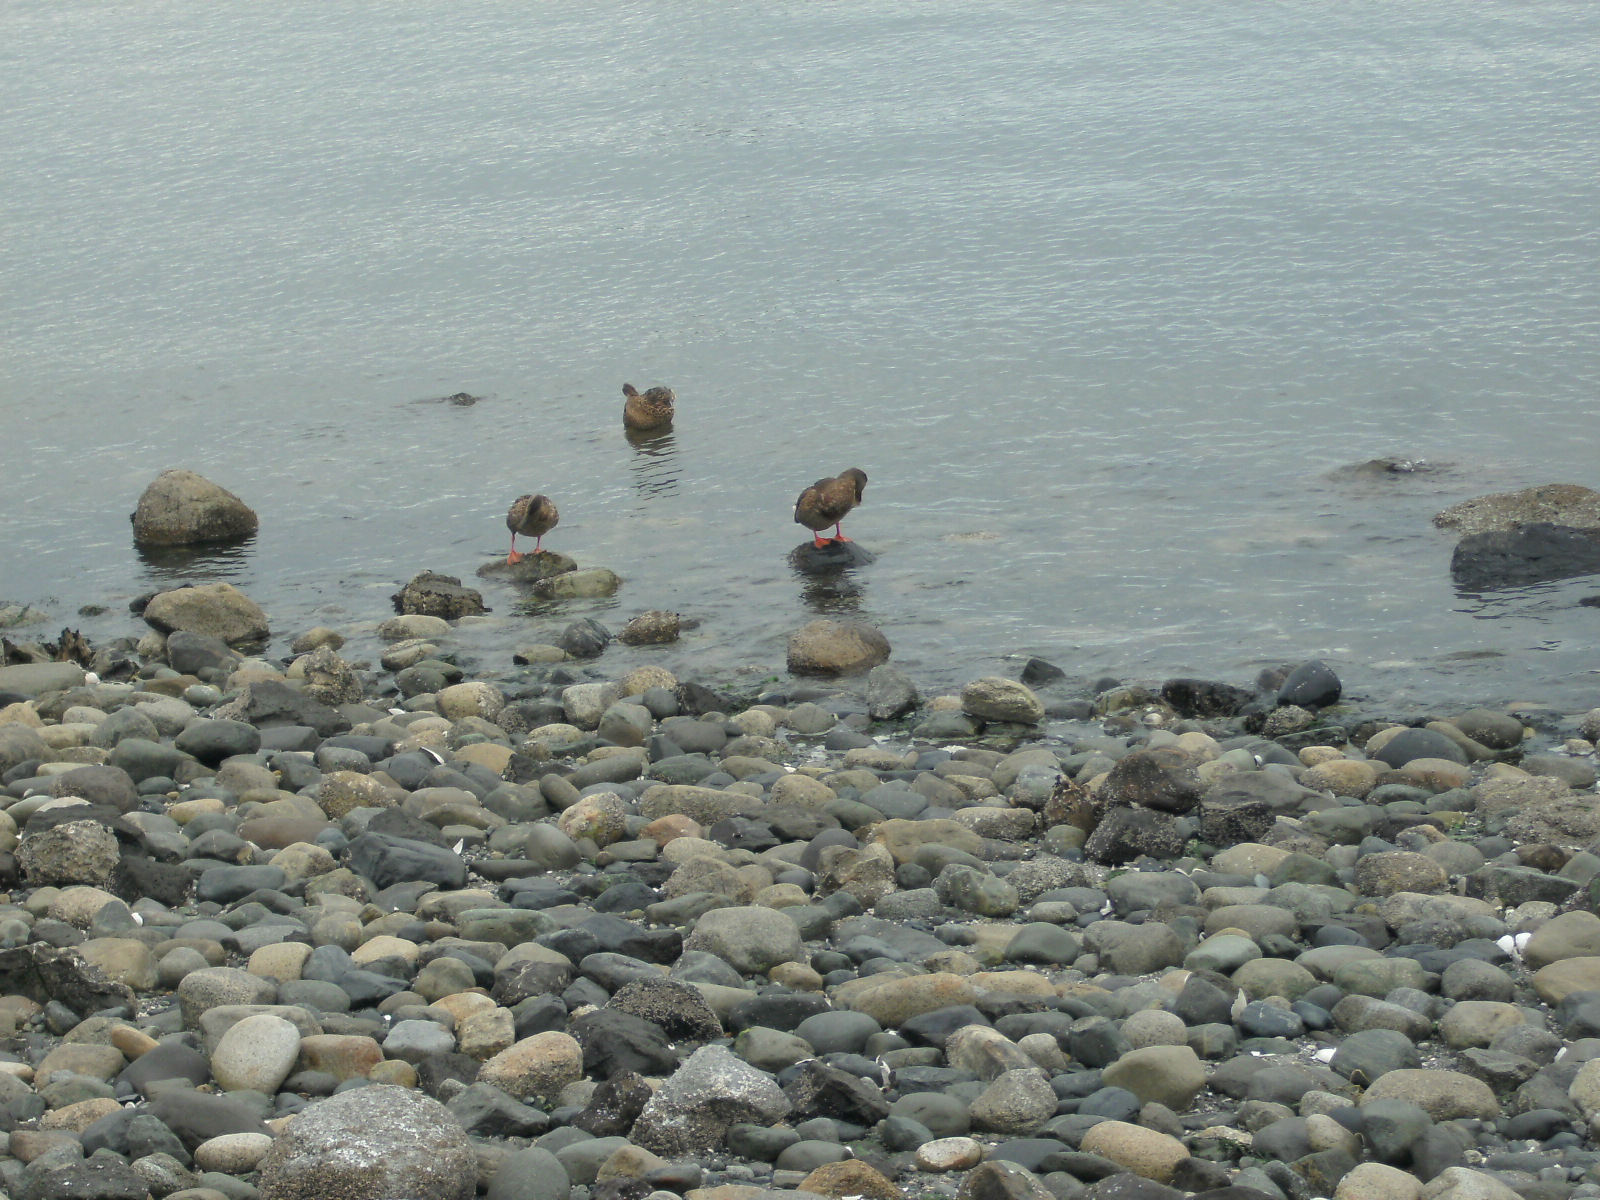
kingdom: Animalia
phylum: Chordata
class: Aves
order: Anseriformes
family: Anatidae
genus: Anas
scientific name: Anas platyrhynchos
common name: Mallard
